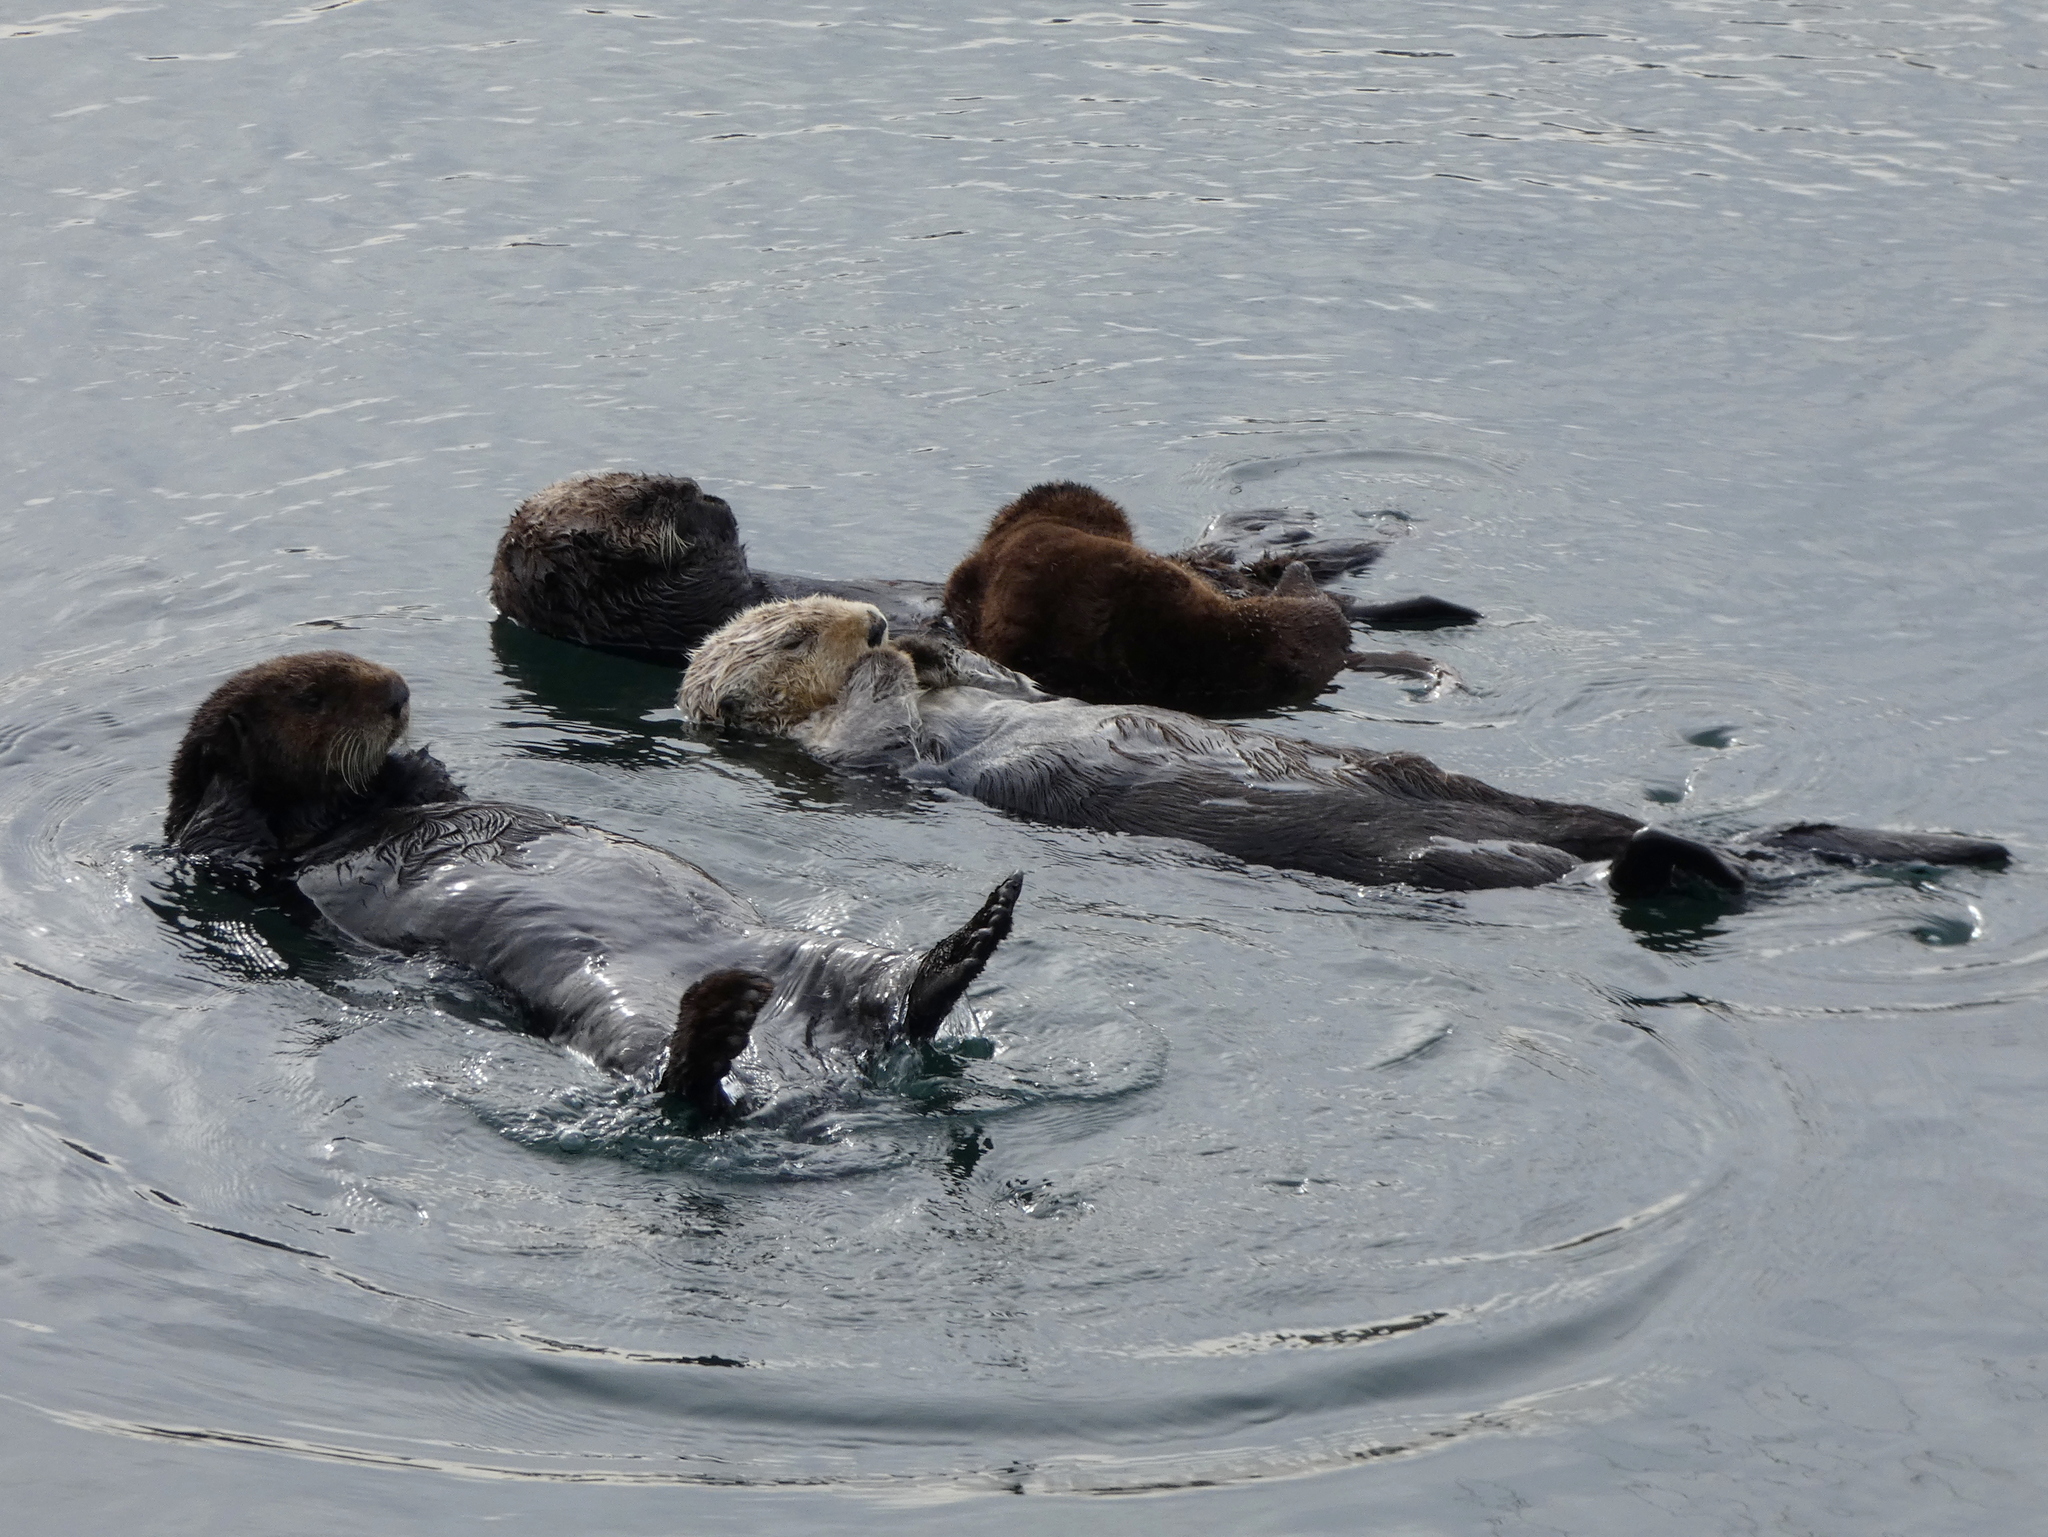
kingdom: Animalia
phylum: Chordata
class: Mammalia
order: Carnivora
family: Mustelidae
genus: Enhydra
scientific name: Enhydra lutris
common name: Sea otter
